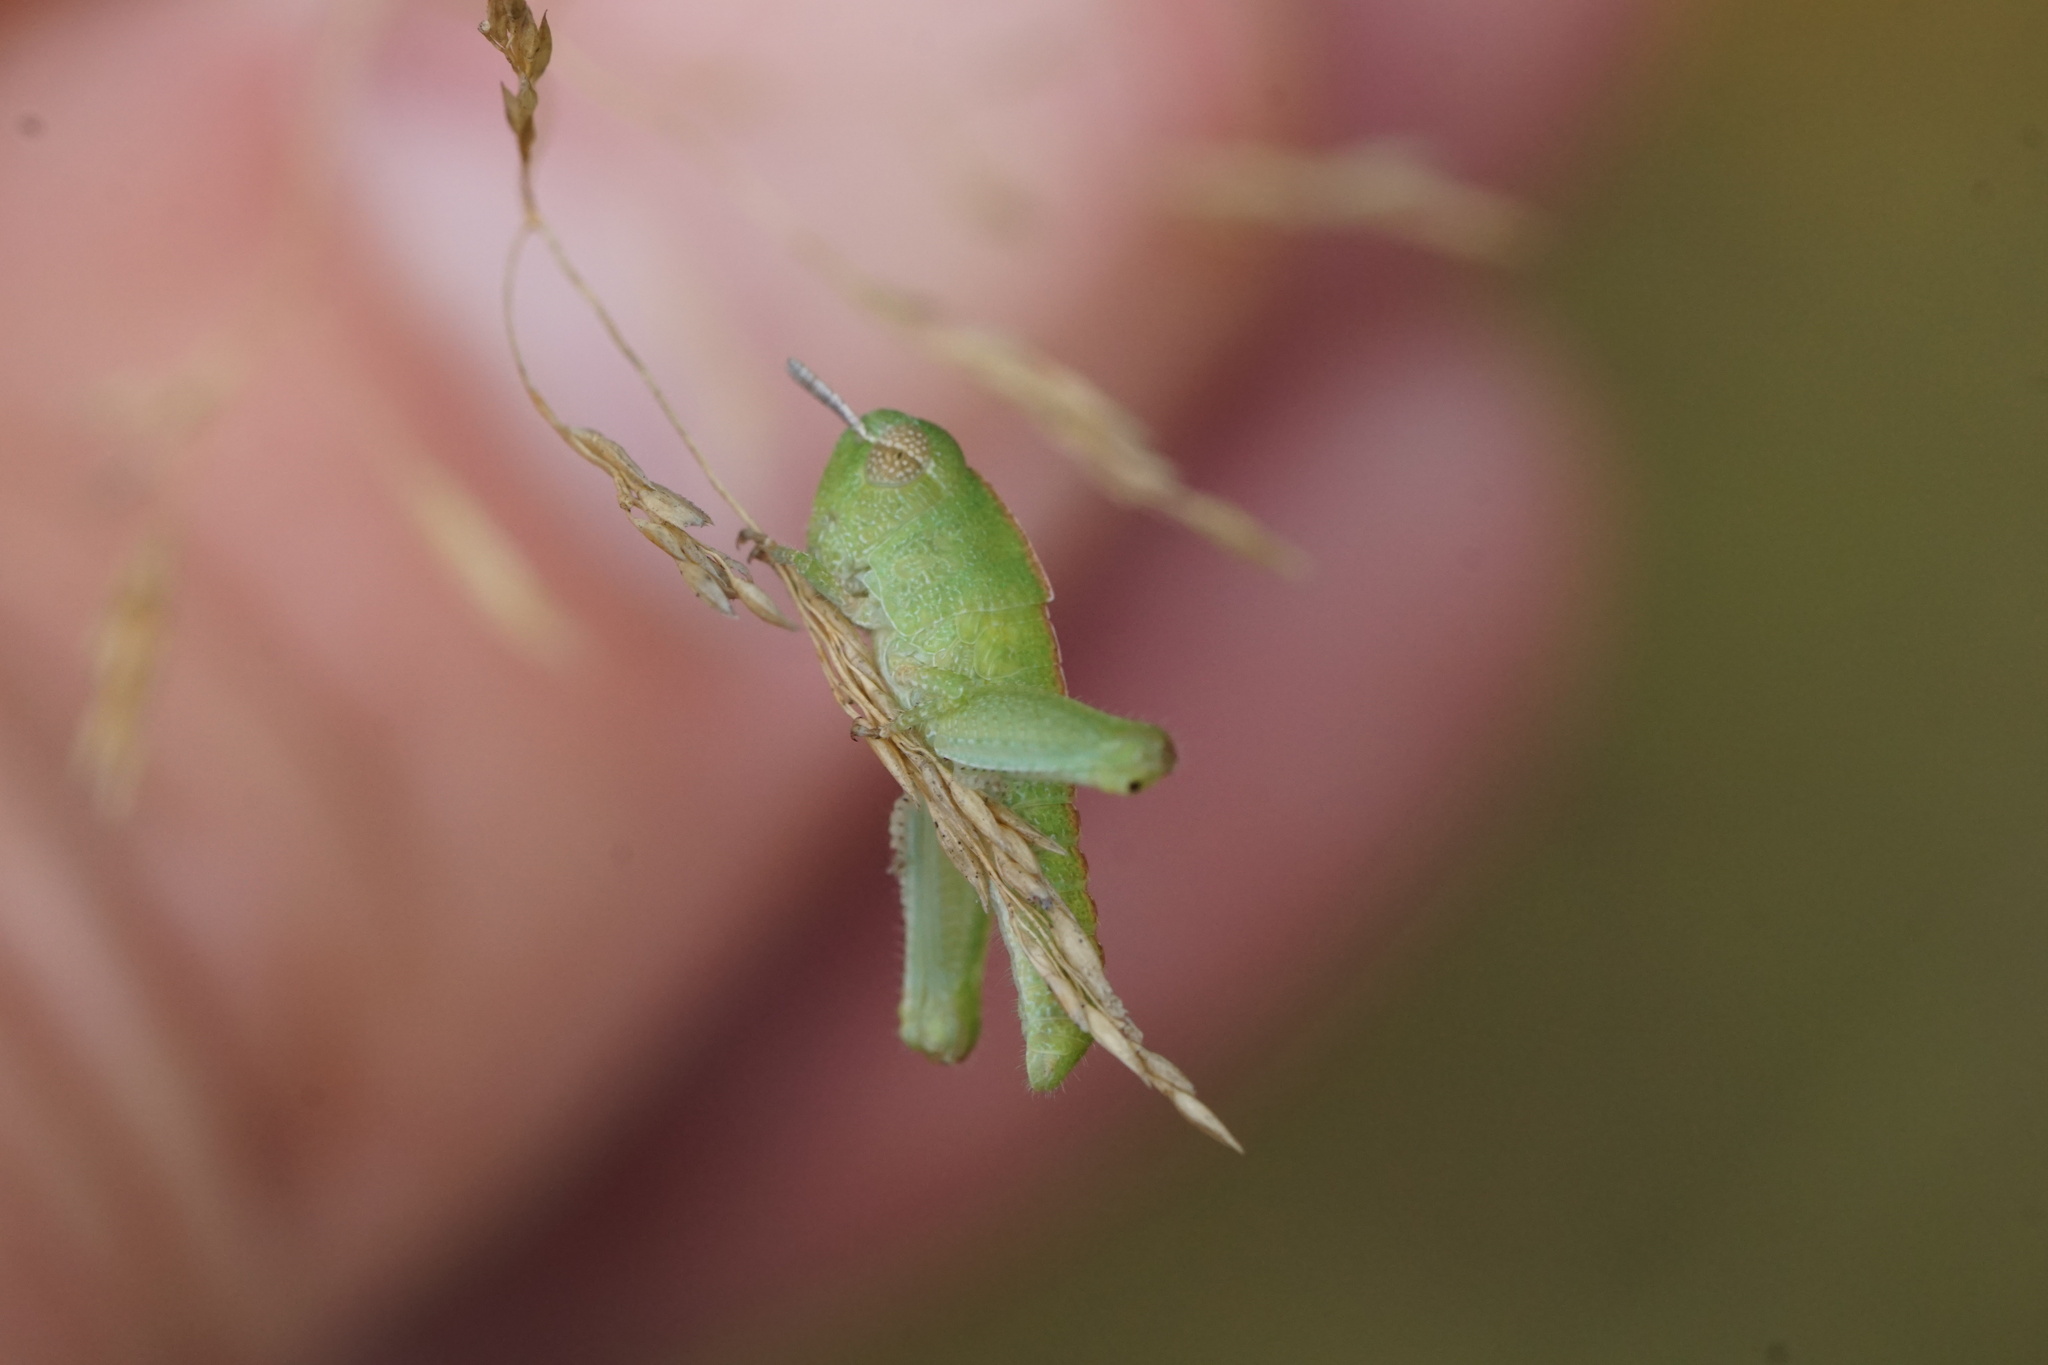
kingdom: Animalia
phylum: Arthropoda
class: Insecta
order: Orthoptera
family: Acrididae
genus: Chortophaga
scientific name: Chortophaga viridifasciata
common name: Green-striped grasshopper
